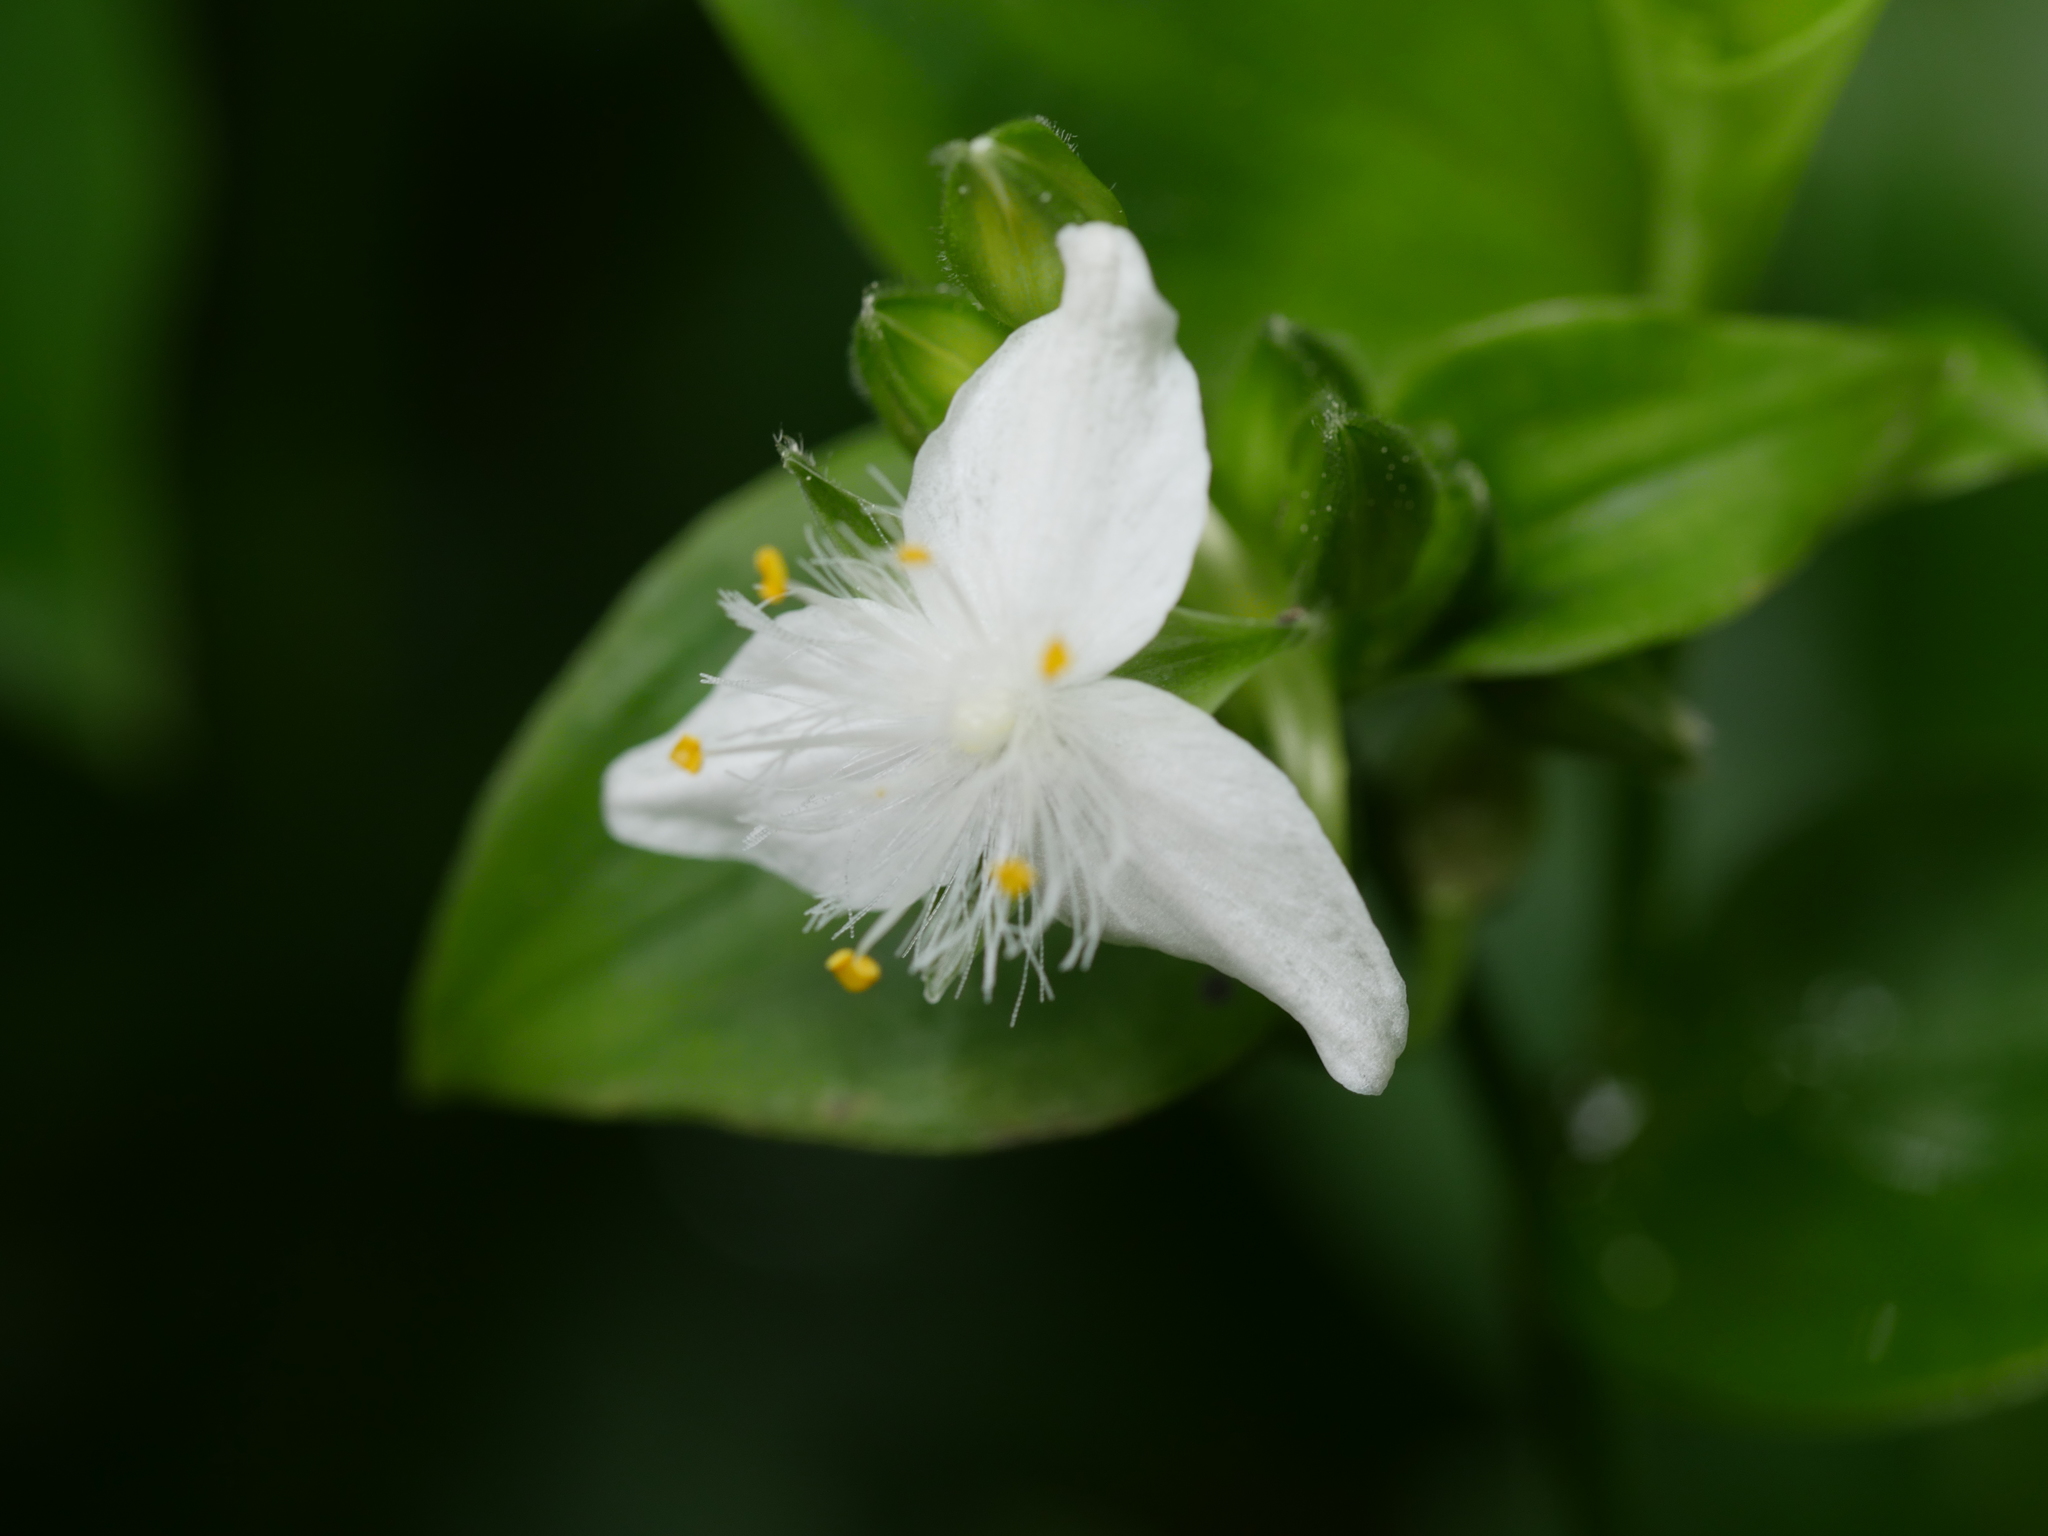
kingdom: Plantae
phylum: Tracheophyta
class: Liliopsida
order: Commelinales
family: Commelinaceae
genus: Tradescantia
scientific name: Tradescantia fluminensis
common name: Wandering-jew
